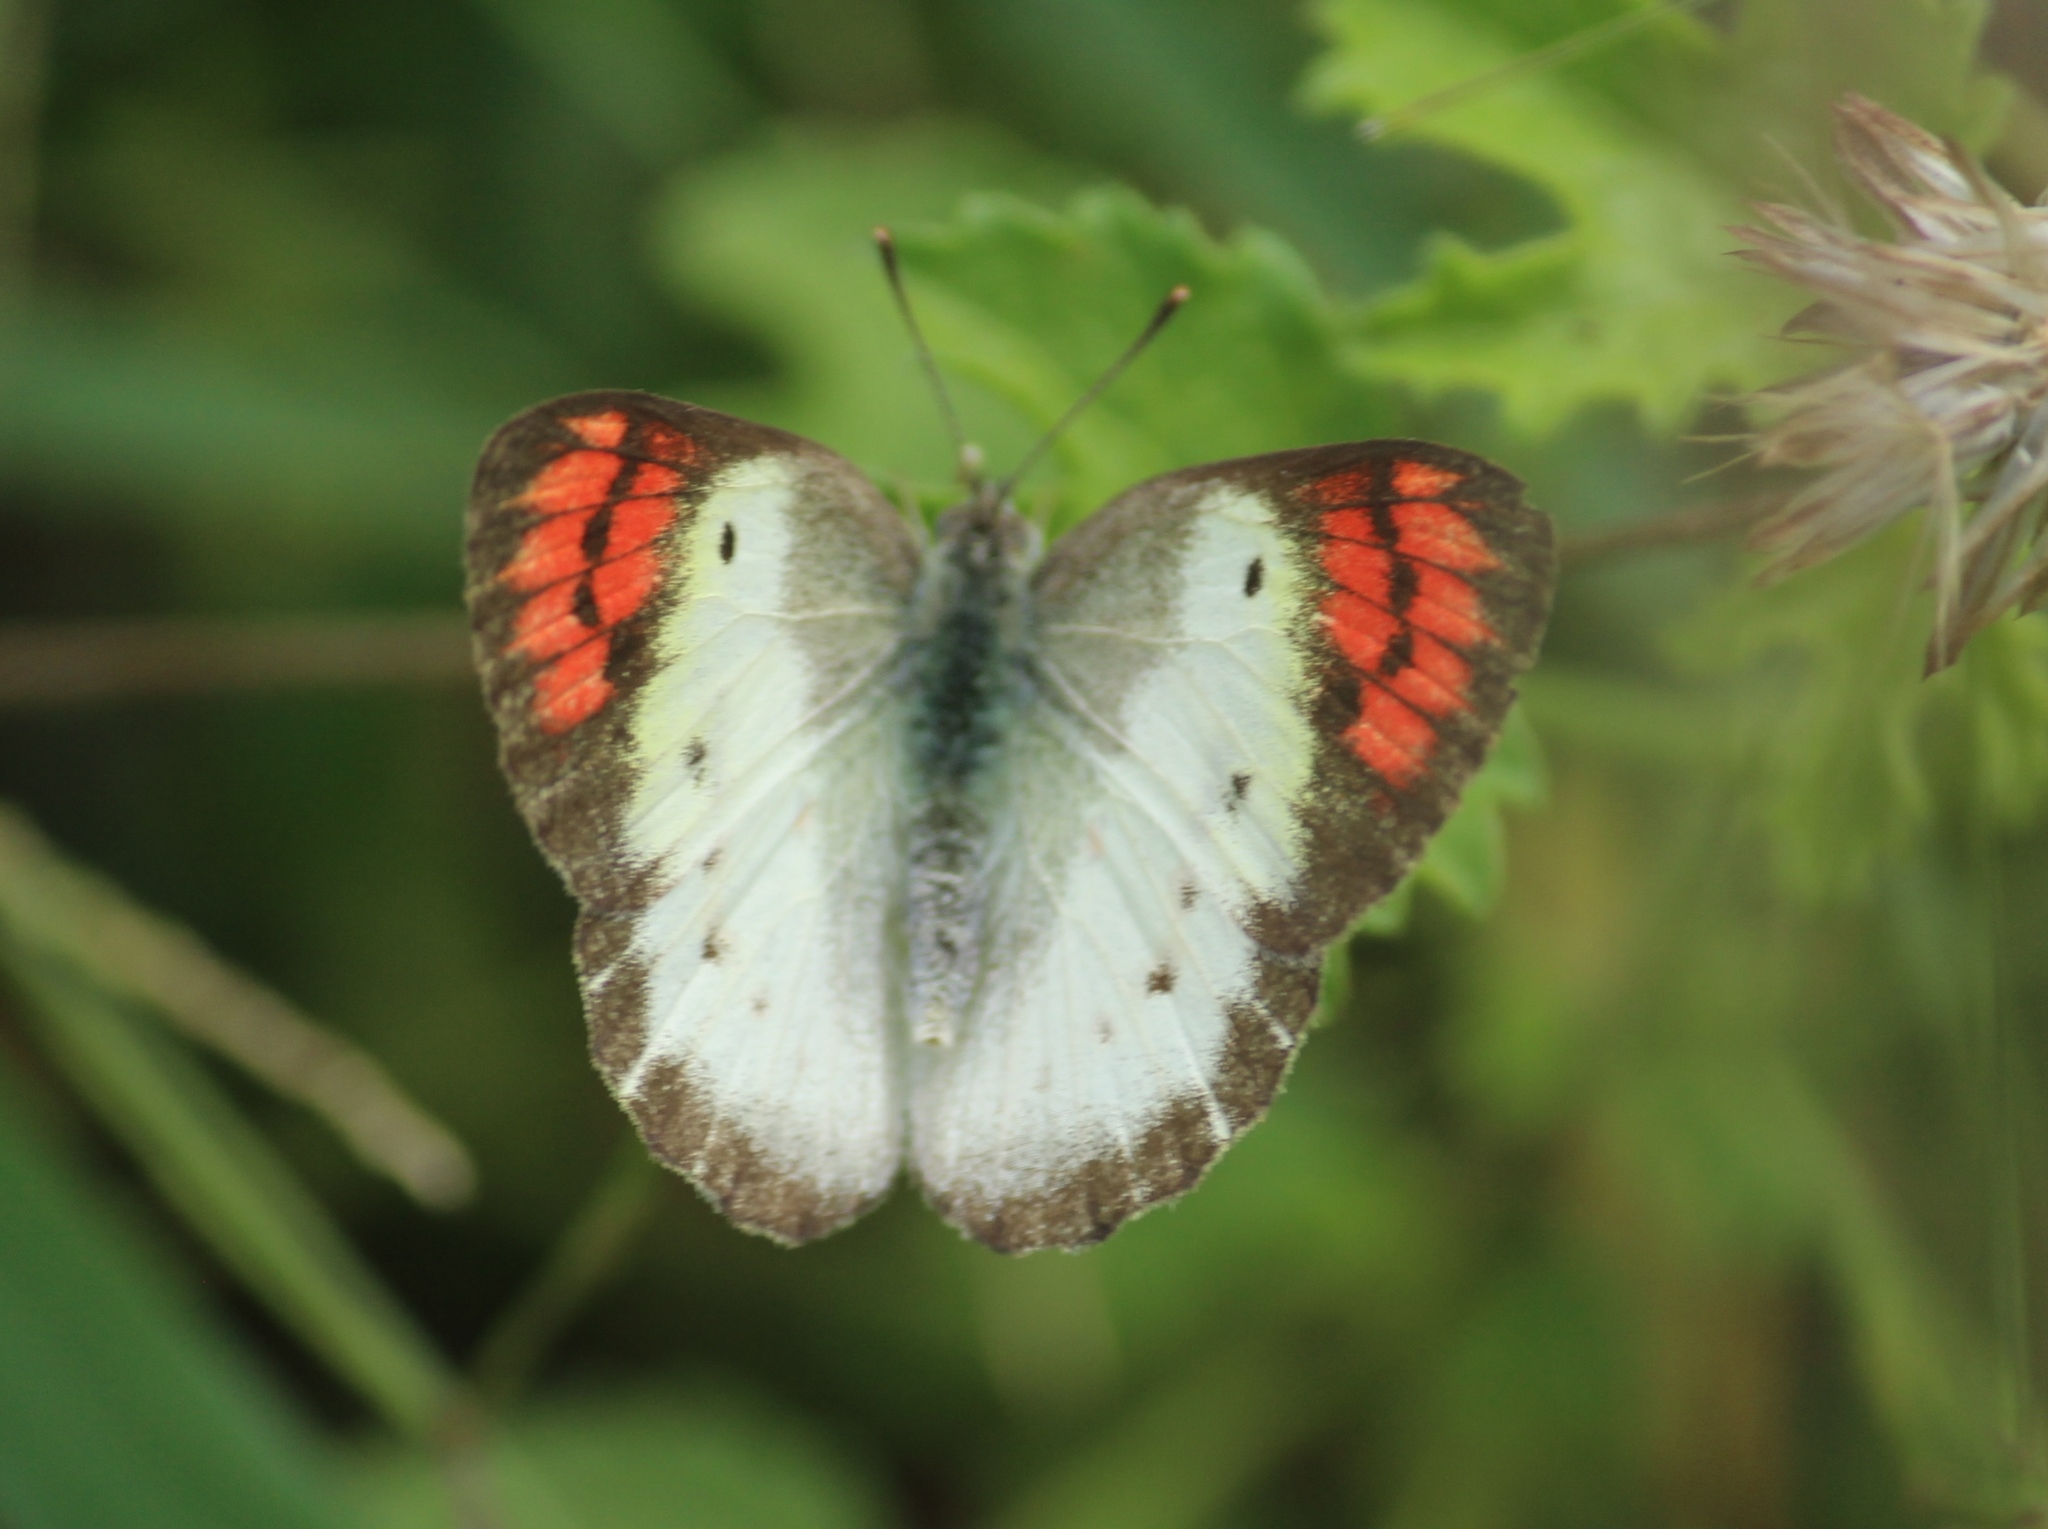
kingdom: Animalia
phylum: Arthropoda
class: Insecta
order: Lepidoptera
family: Pieridae
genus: Colotis
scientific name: Colotis danae
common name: Crimson tip
